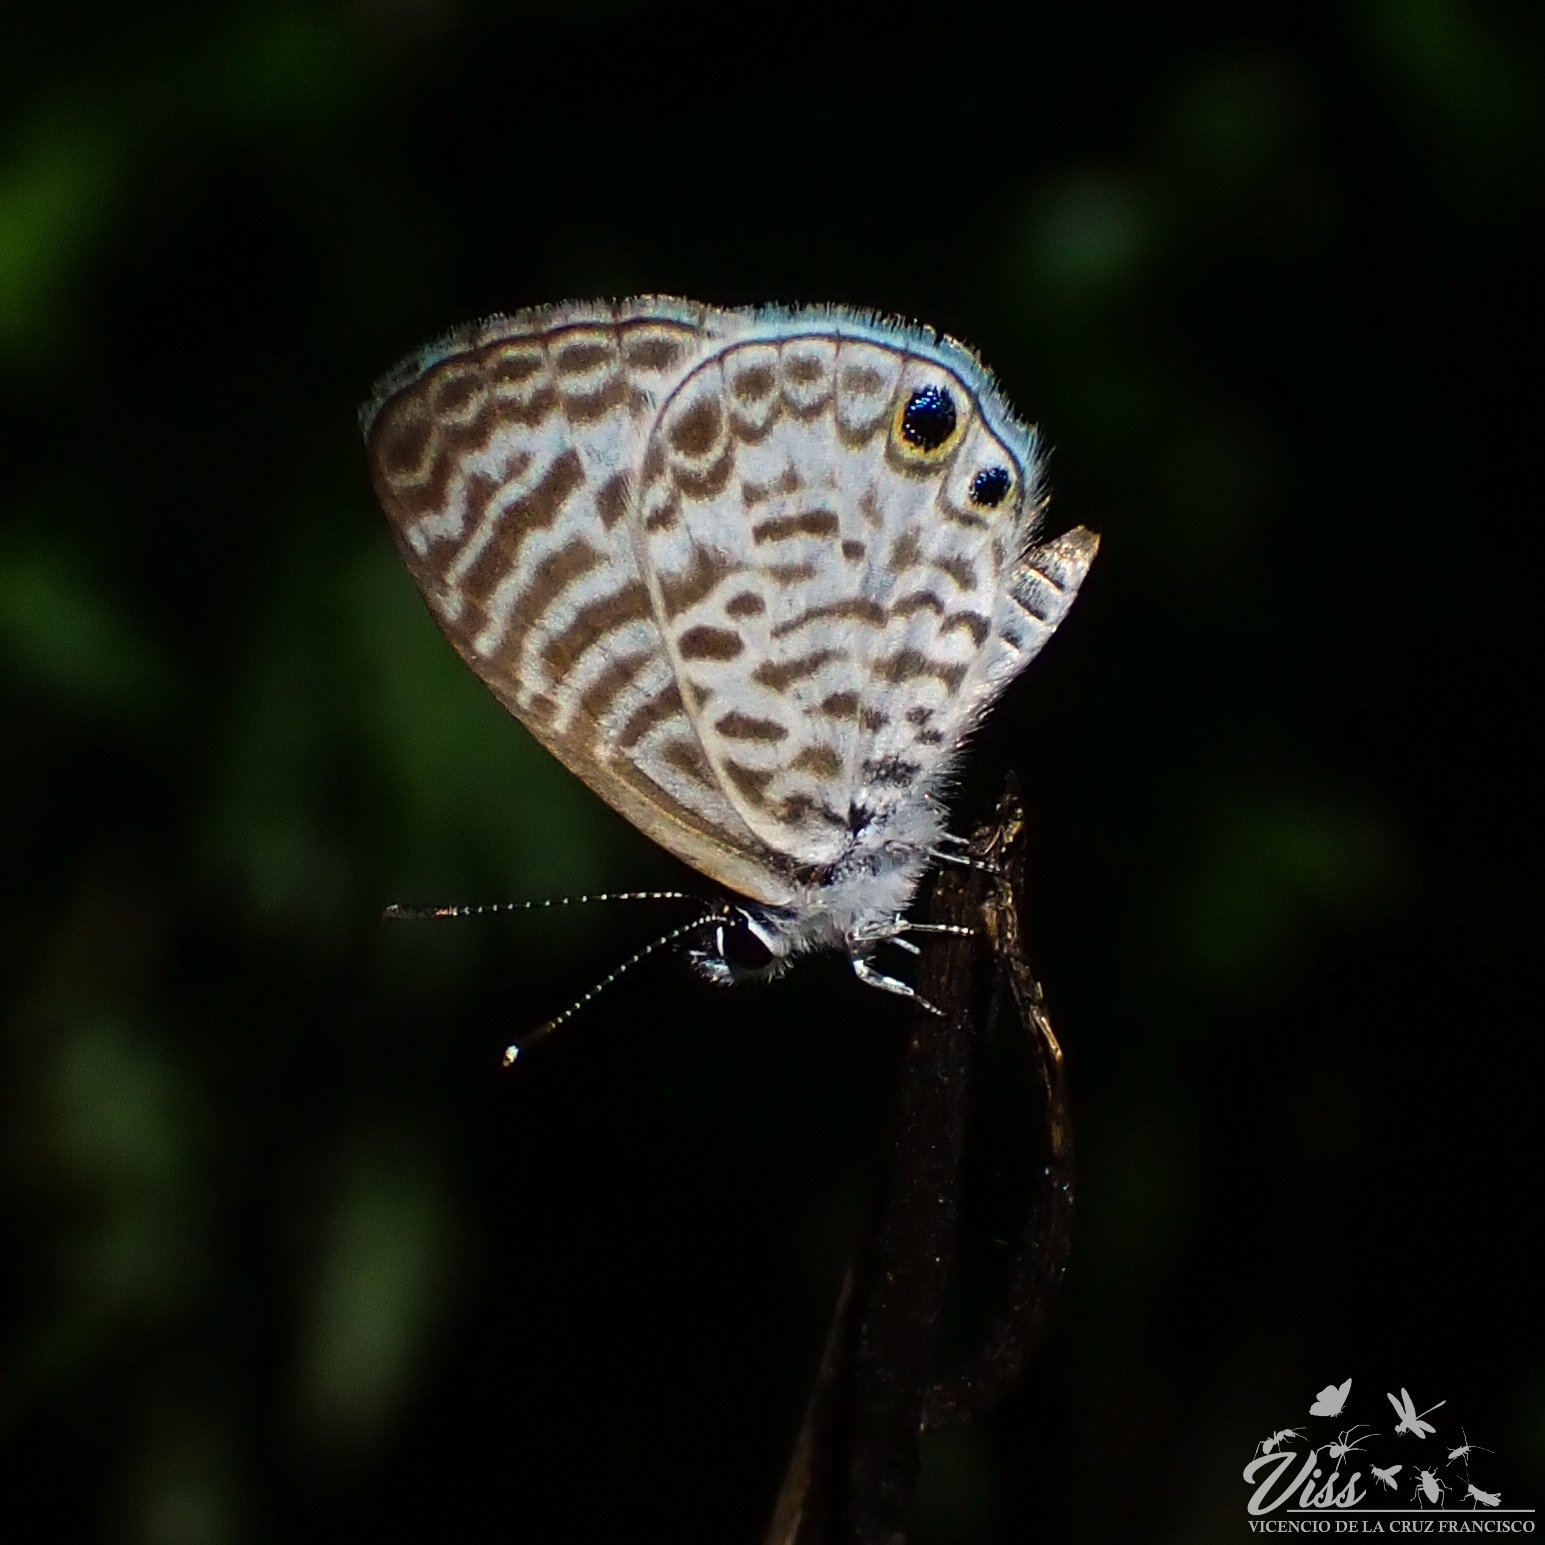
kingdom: Animalia
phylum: Arthropoda
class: Insecta
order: Lepidoptera
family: Lycaenidae
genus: Leptotes
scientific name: Leptotes theonus
